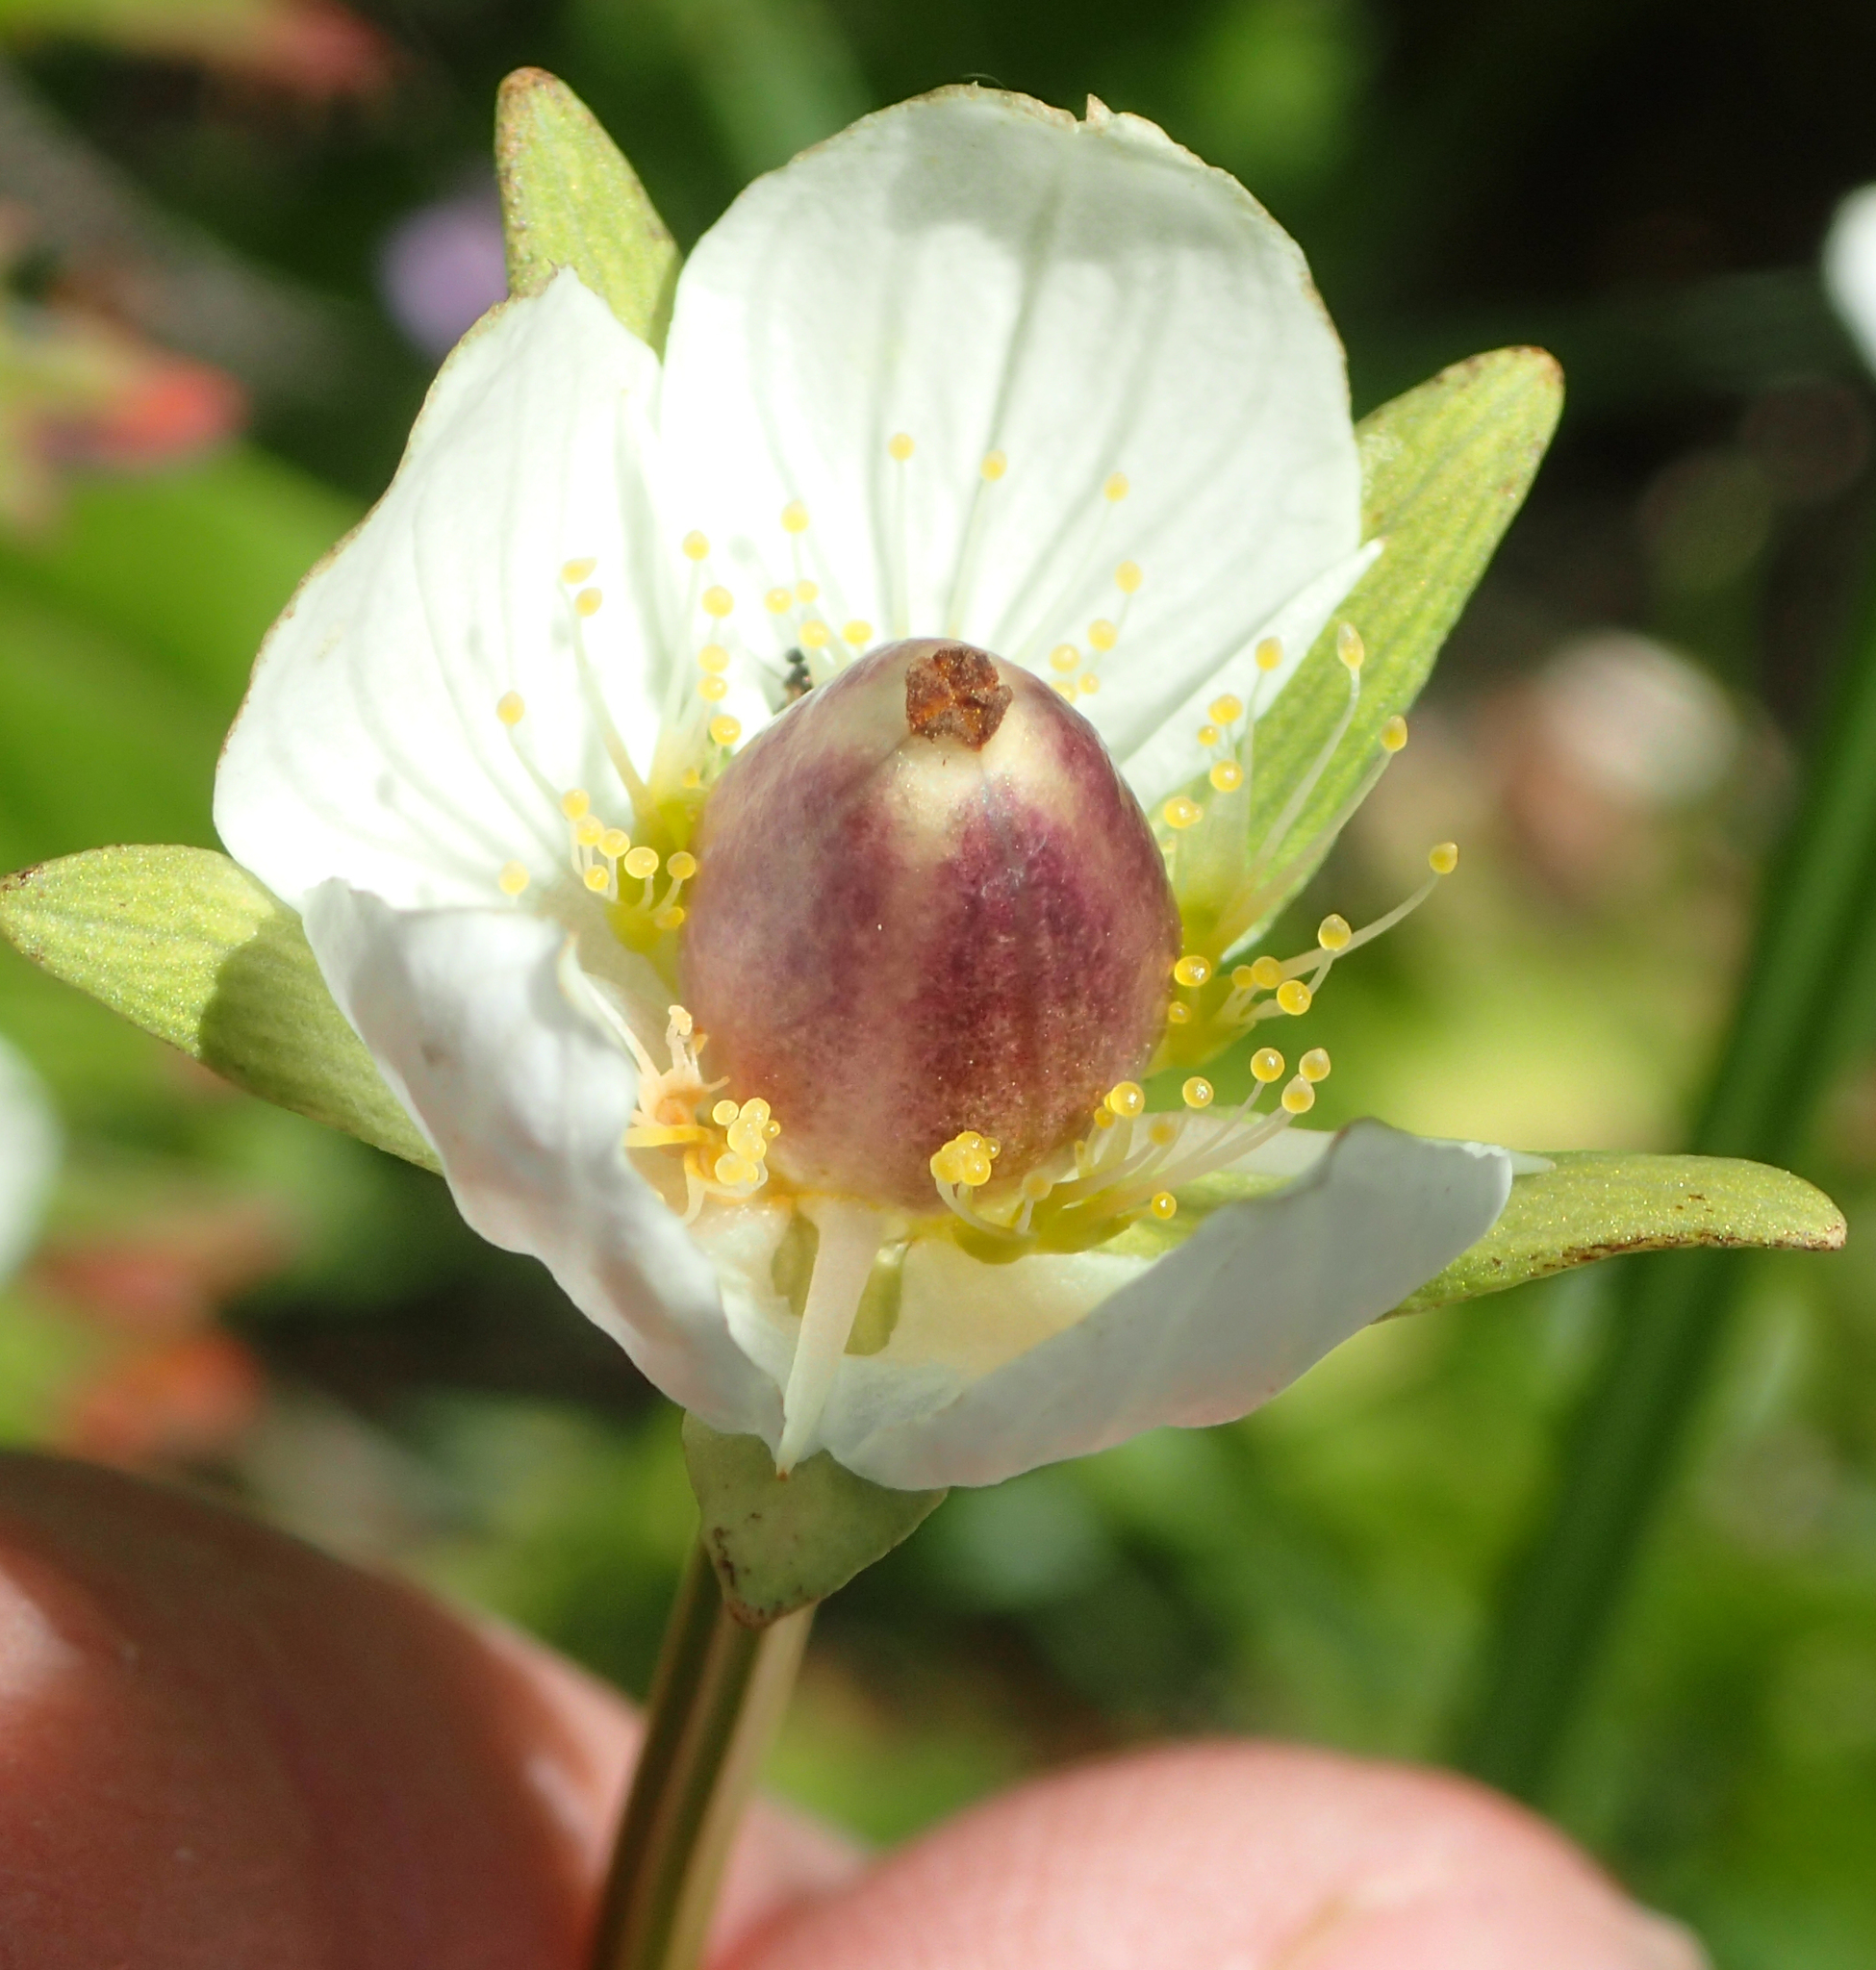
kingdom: Plantae
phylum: Tracheophyta
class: Magnoliopsida
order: Celastrales
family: Parnassiaceae
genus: Parnassia
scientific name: Parnassia palustris
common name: Grass-of-parnassus
